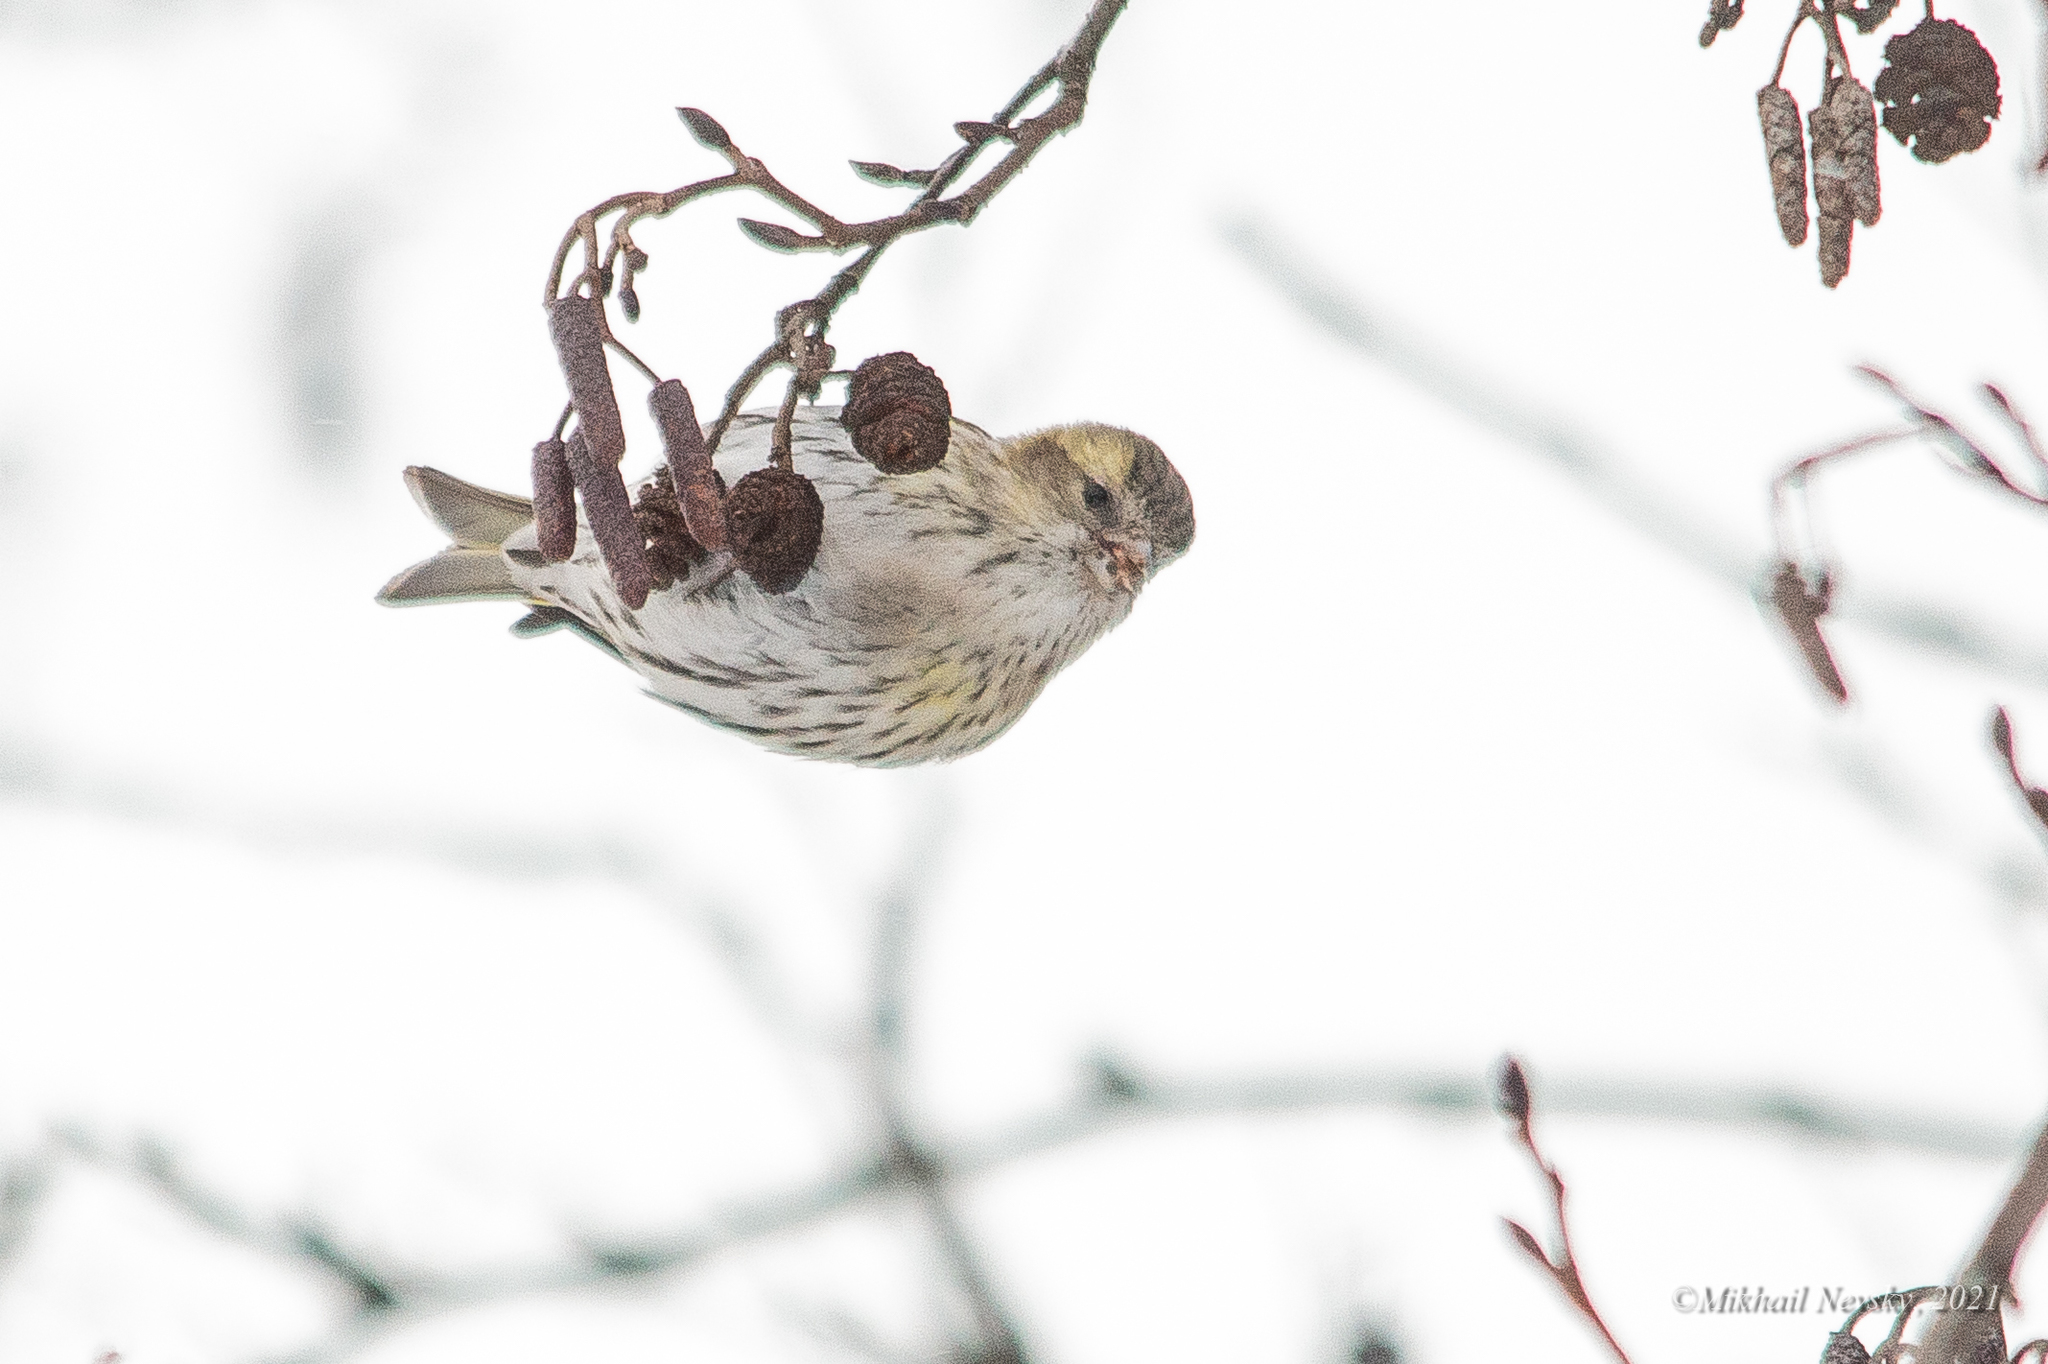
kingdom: Animalia
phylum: Chordata
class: Aves
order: Passeriformes
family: Fringillidae
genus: Spinus
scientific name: Spinus spinus
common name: Eurasian siskin
